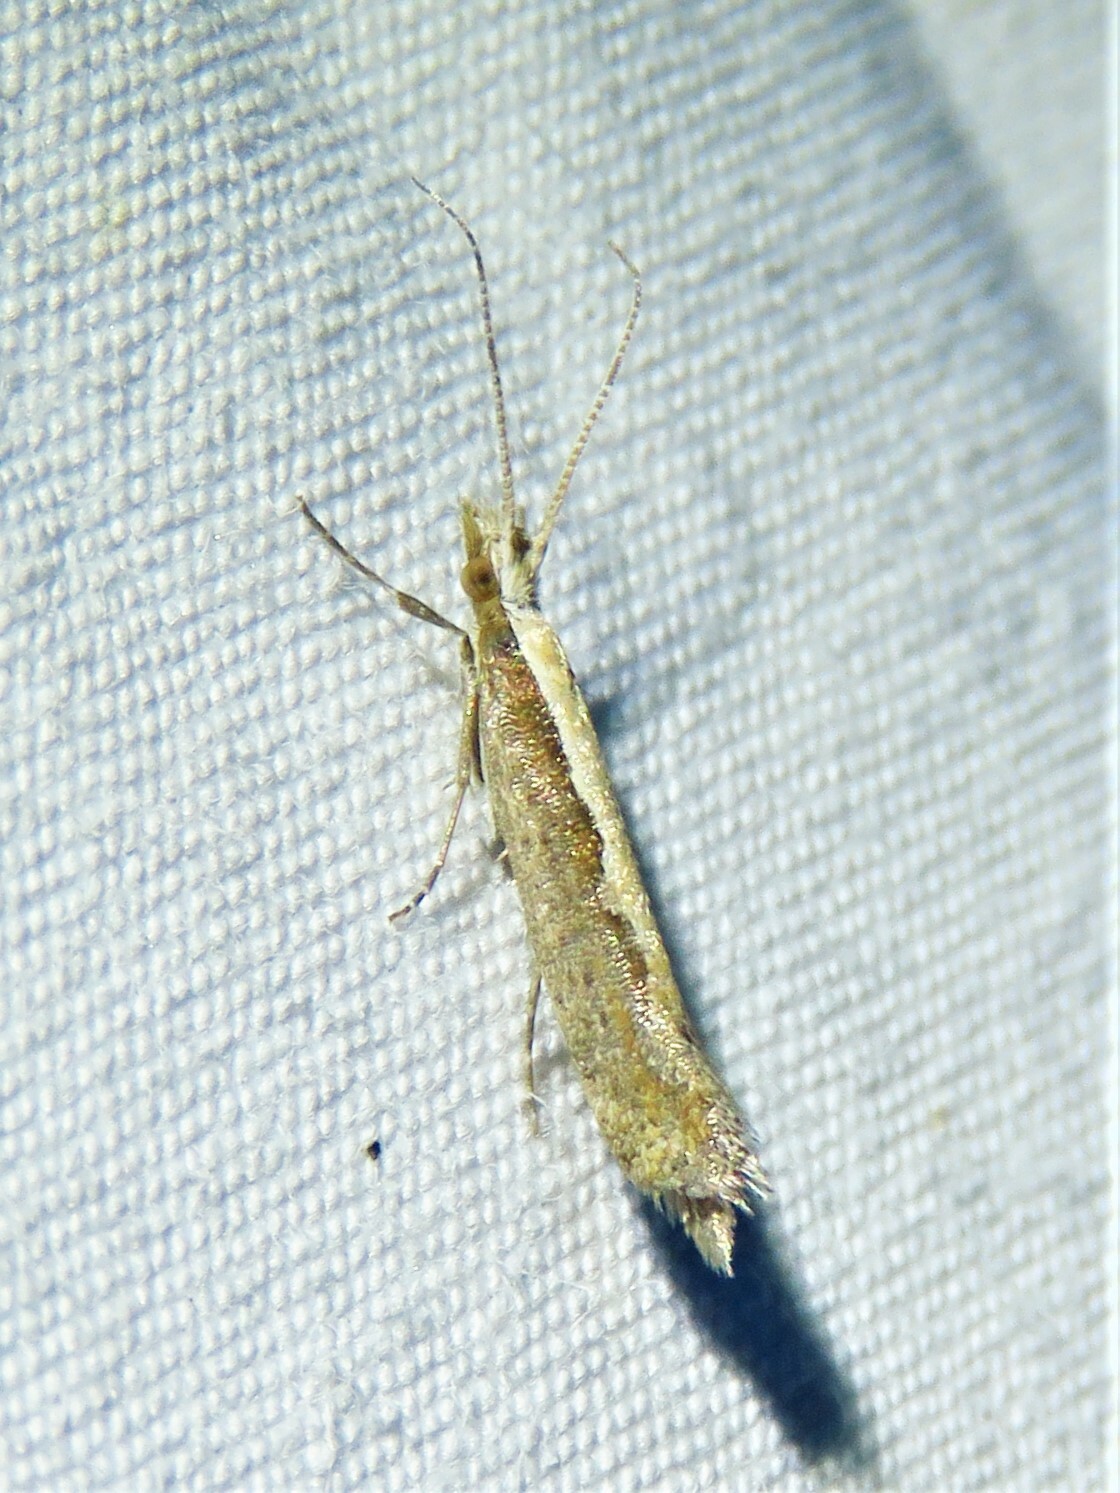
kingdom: Animalia
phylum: Arthropoda
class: Insecta
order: Lepidoptera
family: Plutellidae
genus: Plutella
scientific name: Plutella xylostella
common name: Diamond-back moth
